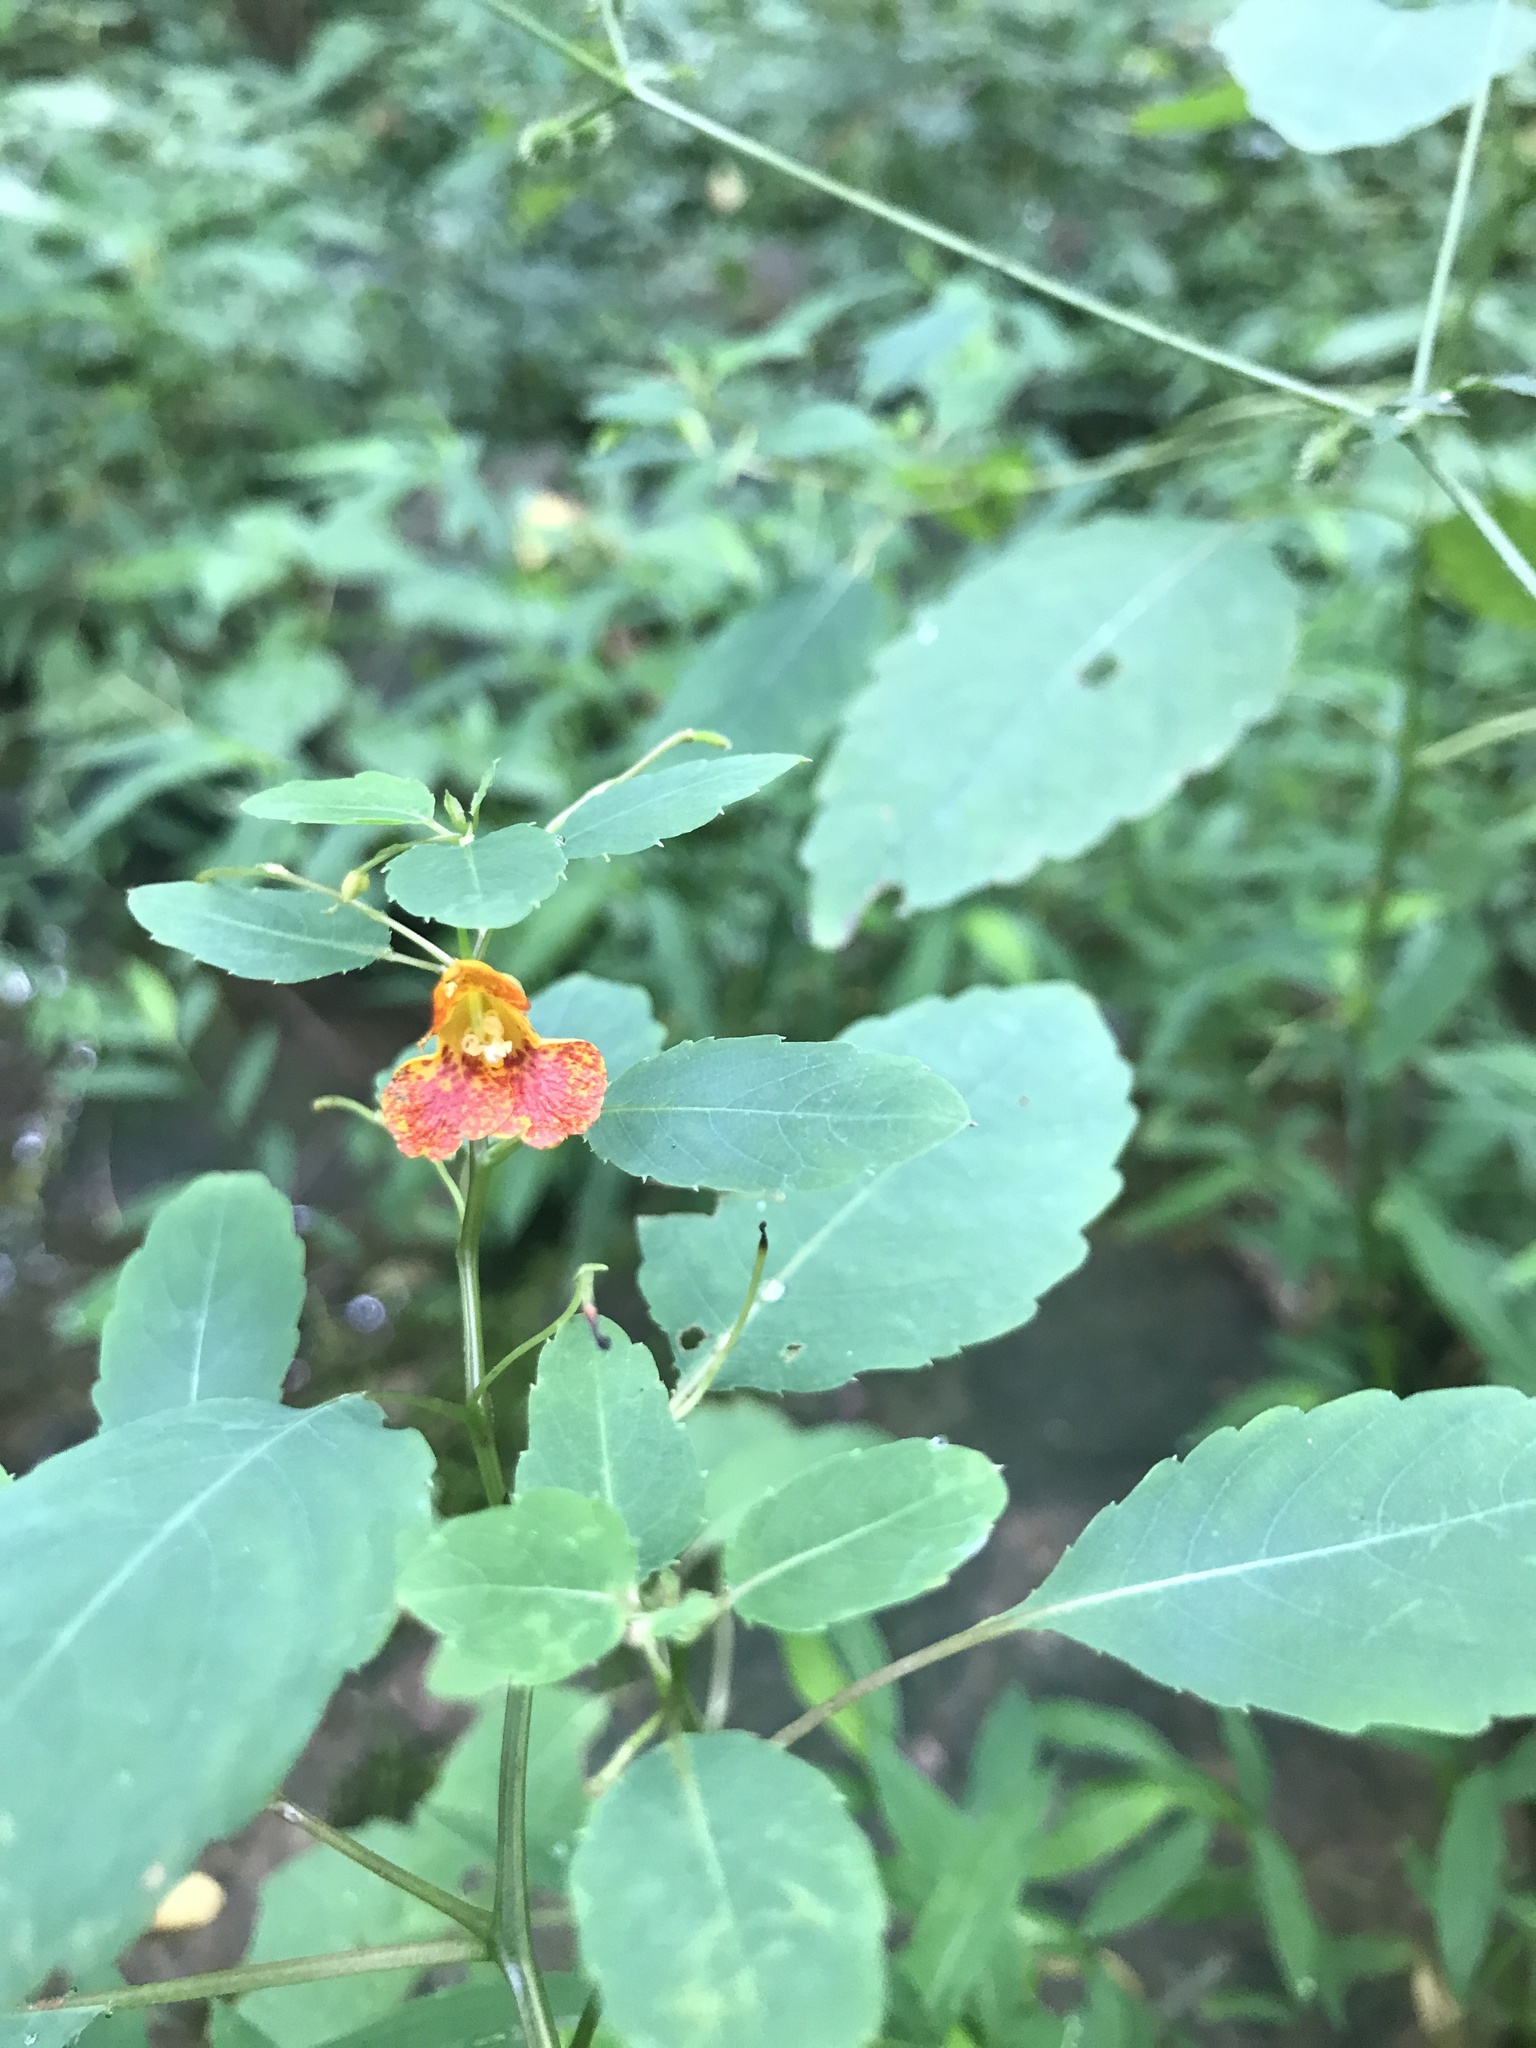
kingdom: Plantae
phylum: Tracheophyta
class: Magnoliopsida
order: Ericales
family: Balsaminaceae
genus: Impatiens
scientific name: Impatiens capensis
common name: Orange balsam
